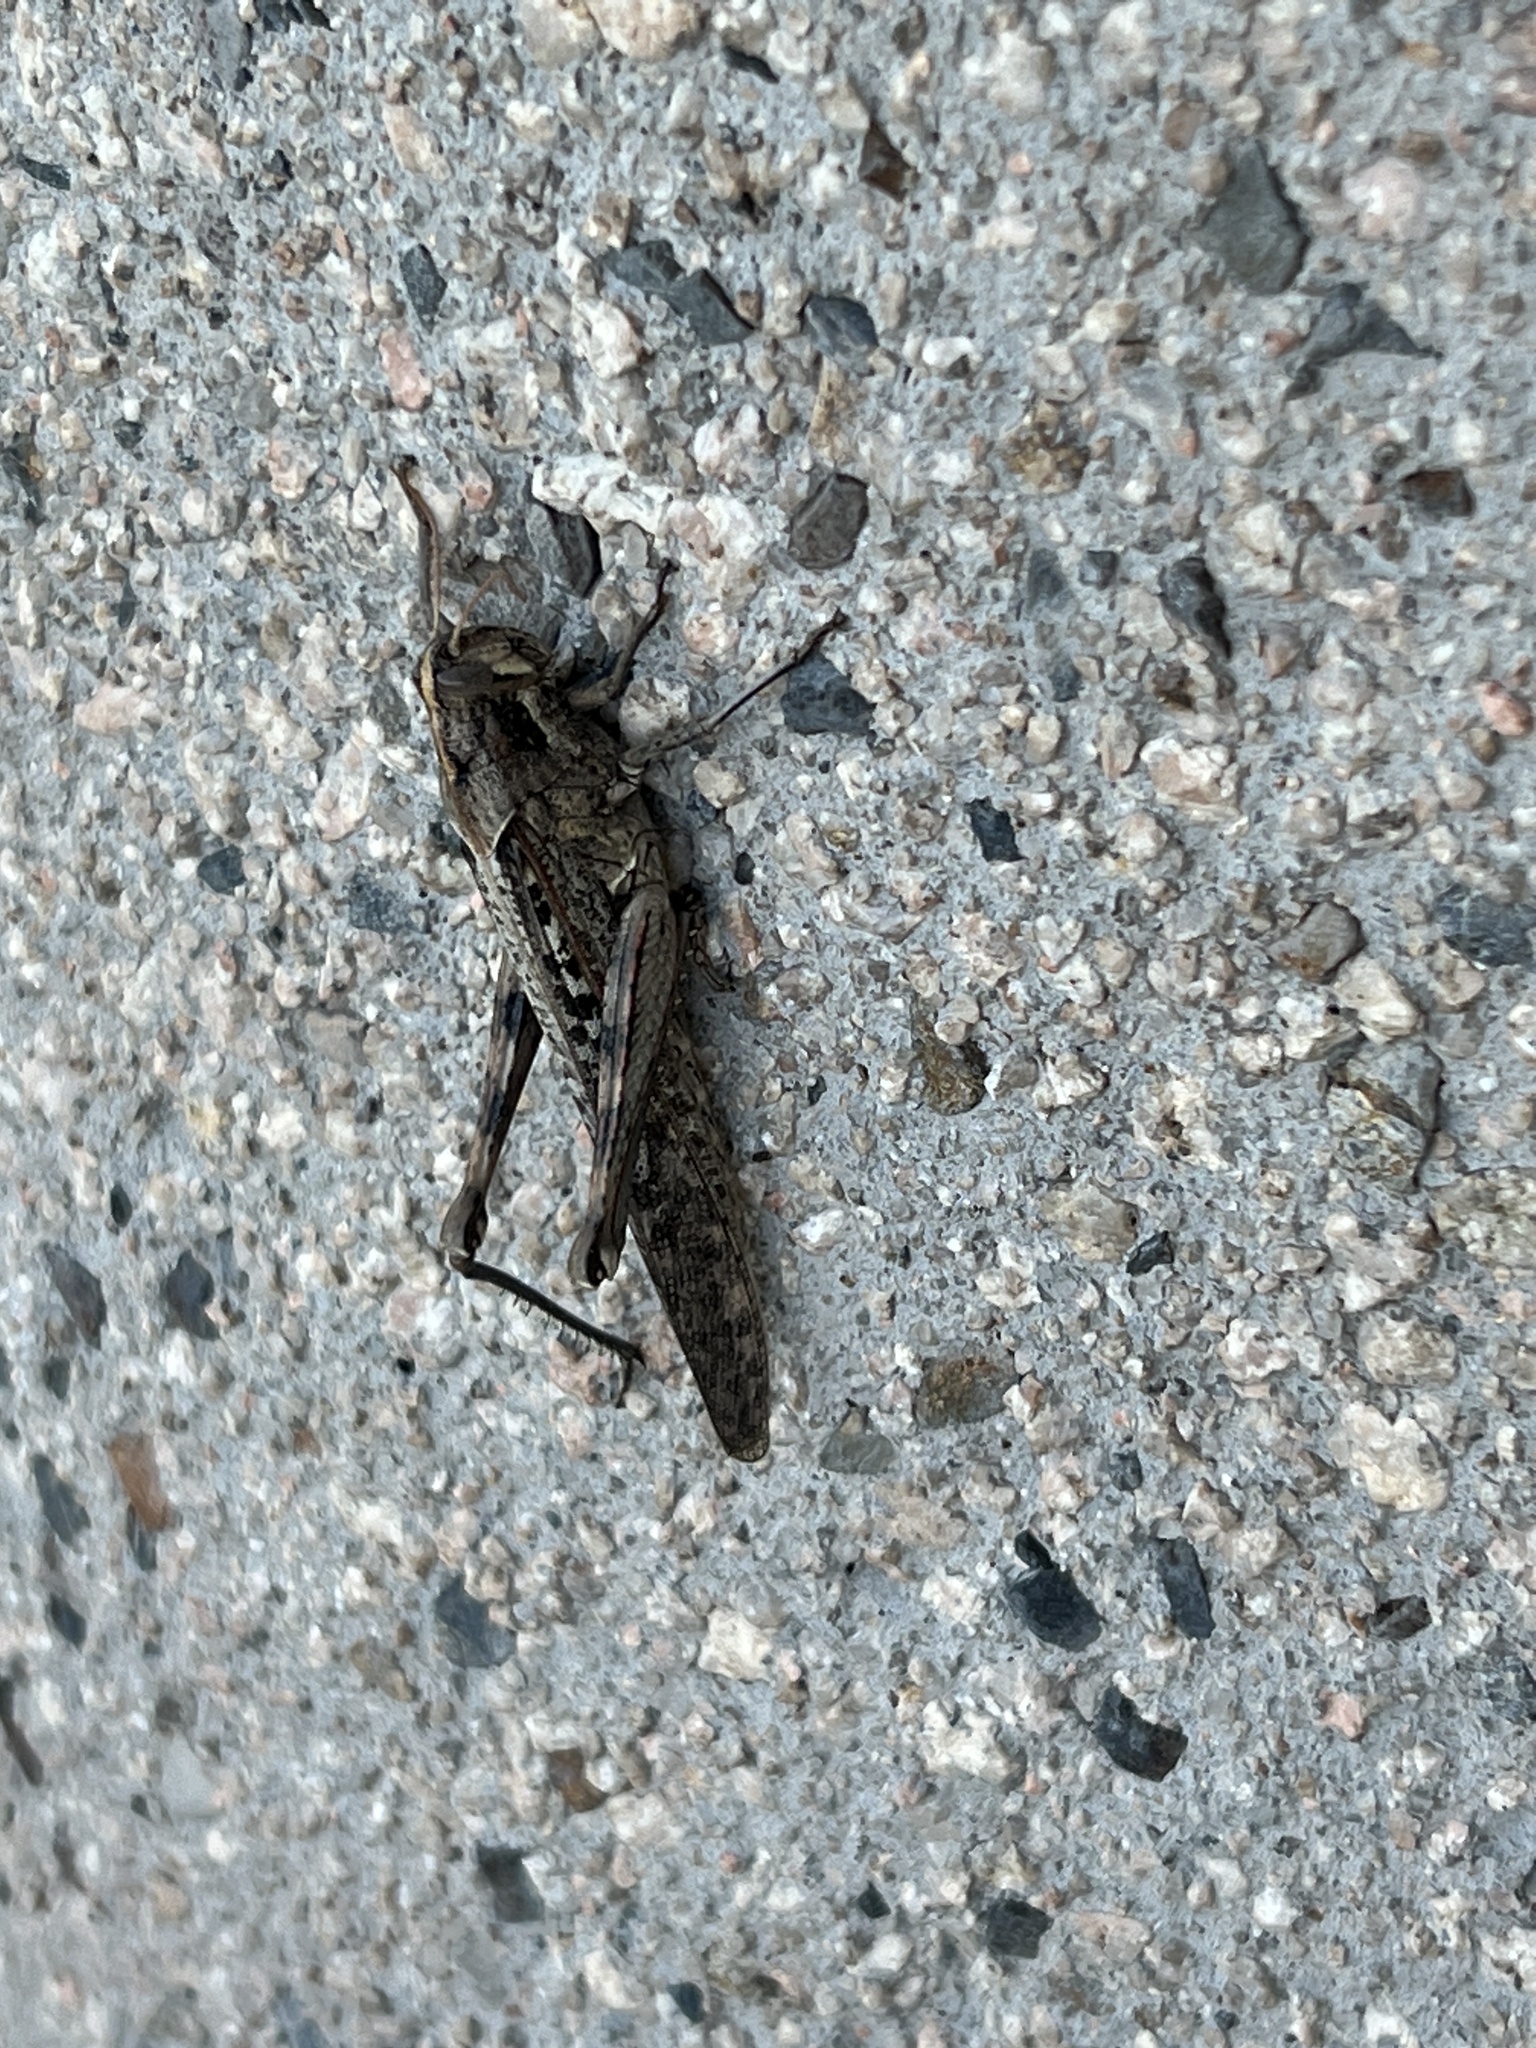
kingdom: Animalia
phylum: Arthropoda
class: Insecta
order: Orthoptera
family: Acrididae
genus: Schistocerca
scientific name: Schistocerca nitens
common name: Vagrant grasshopper
